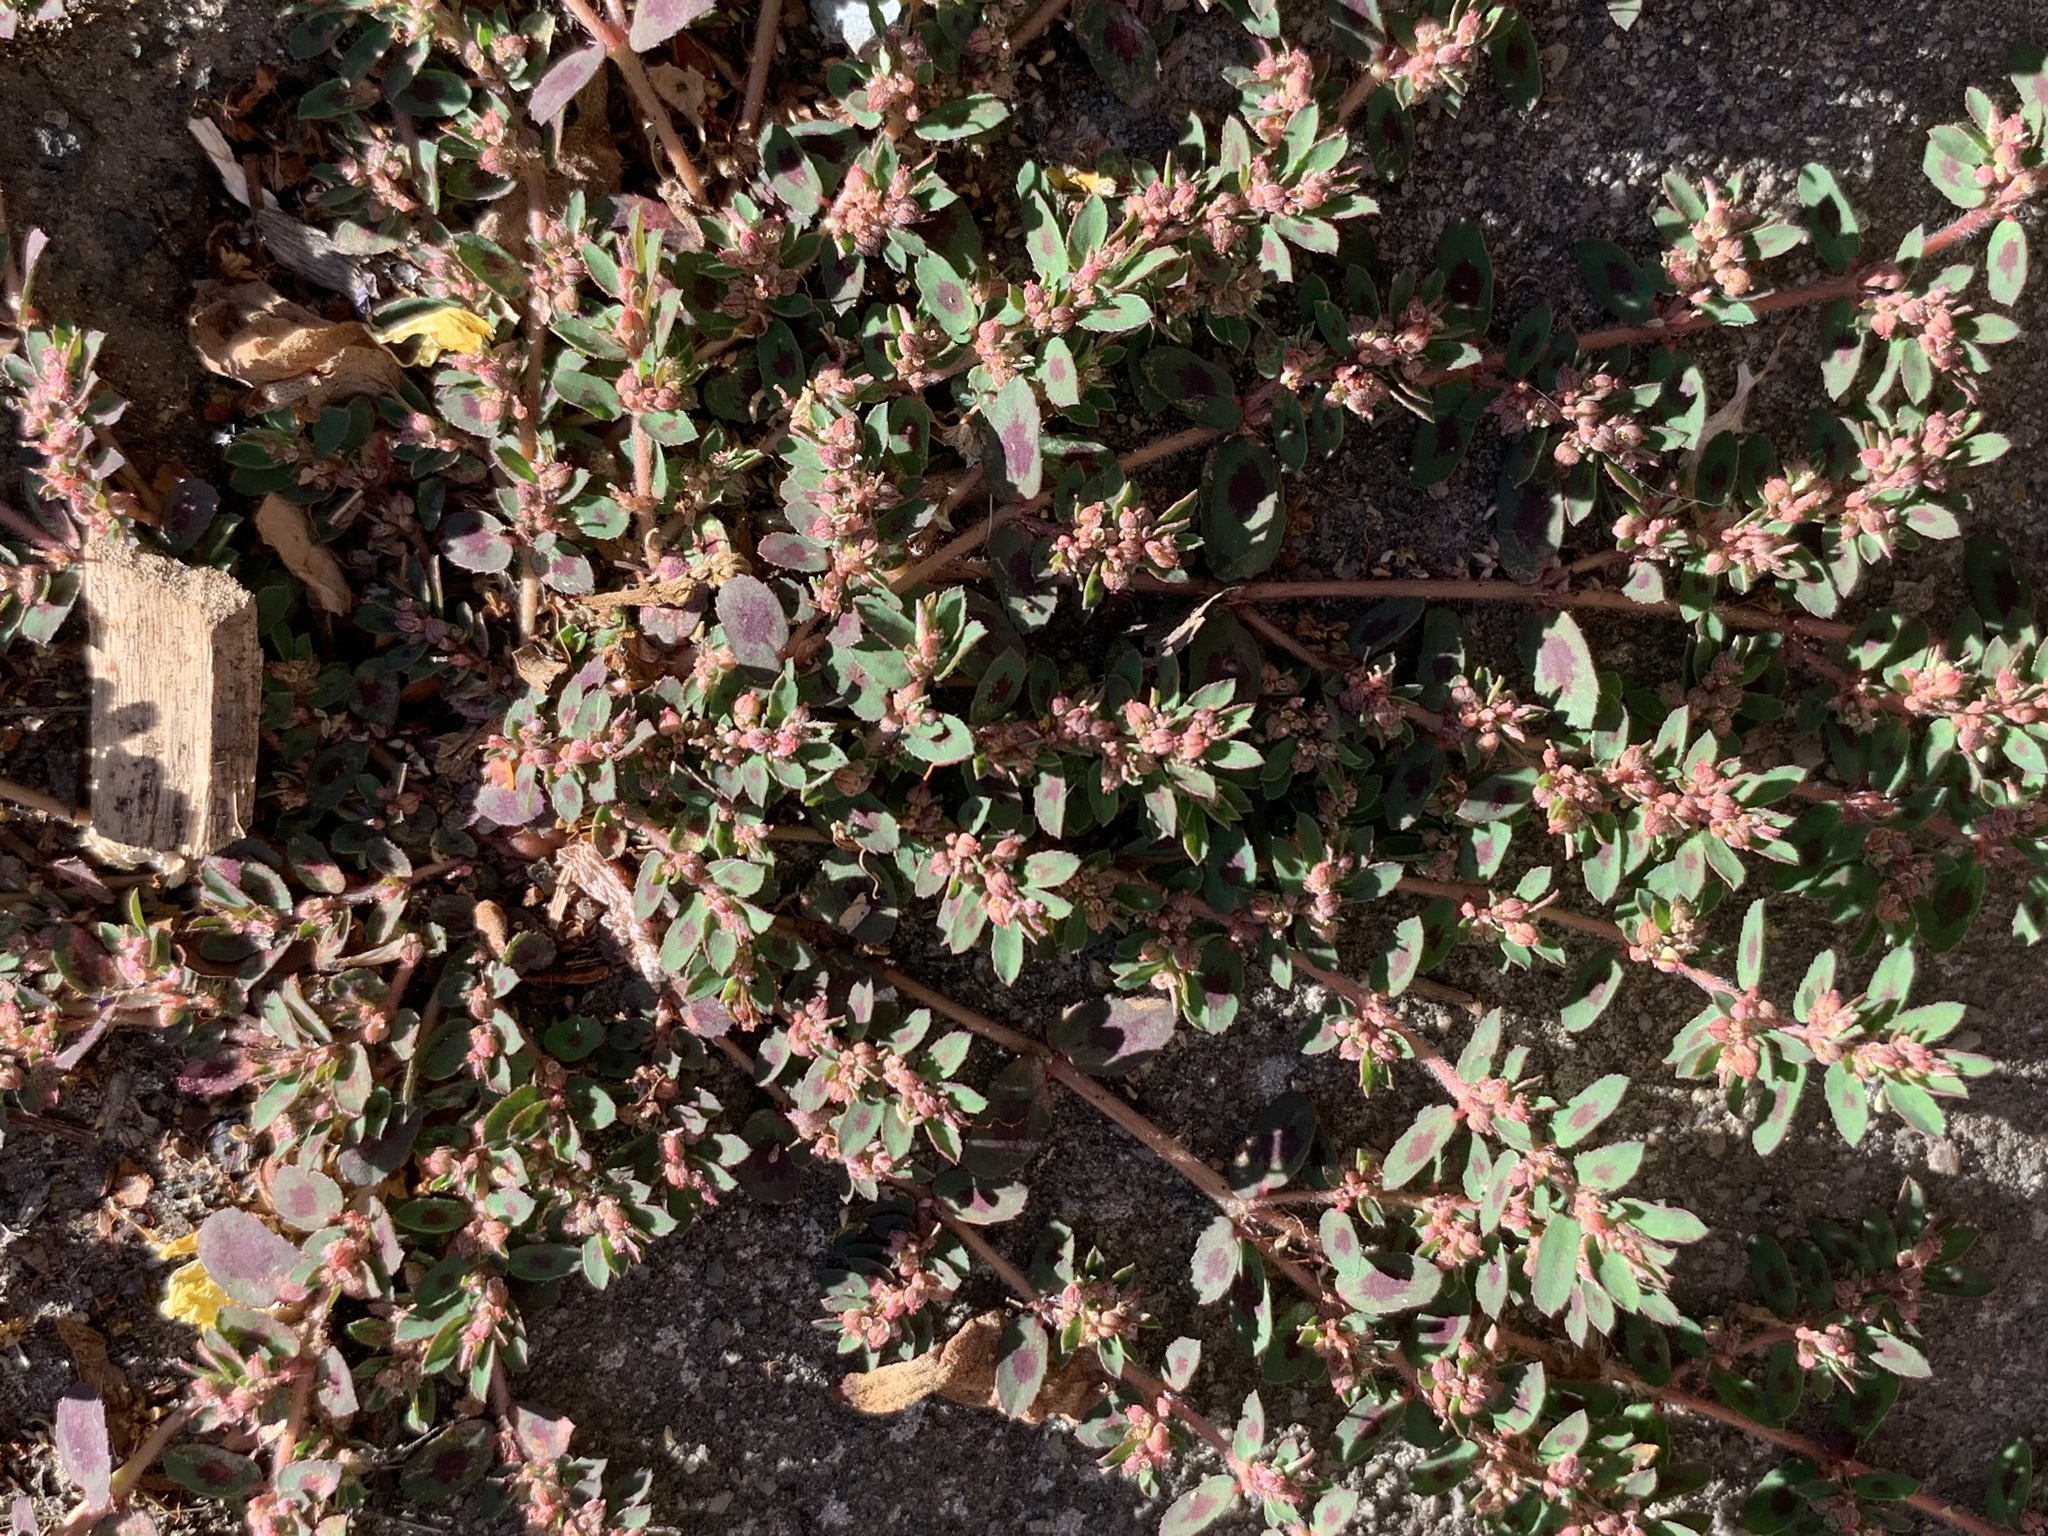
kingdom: Plantae
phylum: Tracheophyta
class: Magnoliopsida
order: Malpighiales
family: Euphorbiaceae
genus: Euphorbia
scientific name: Euphorbia maculata
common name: Spotted spurge
